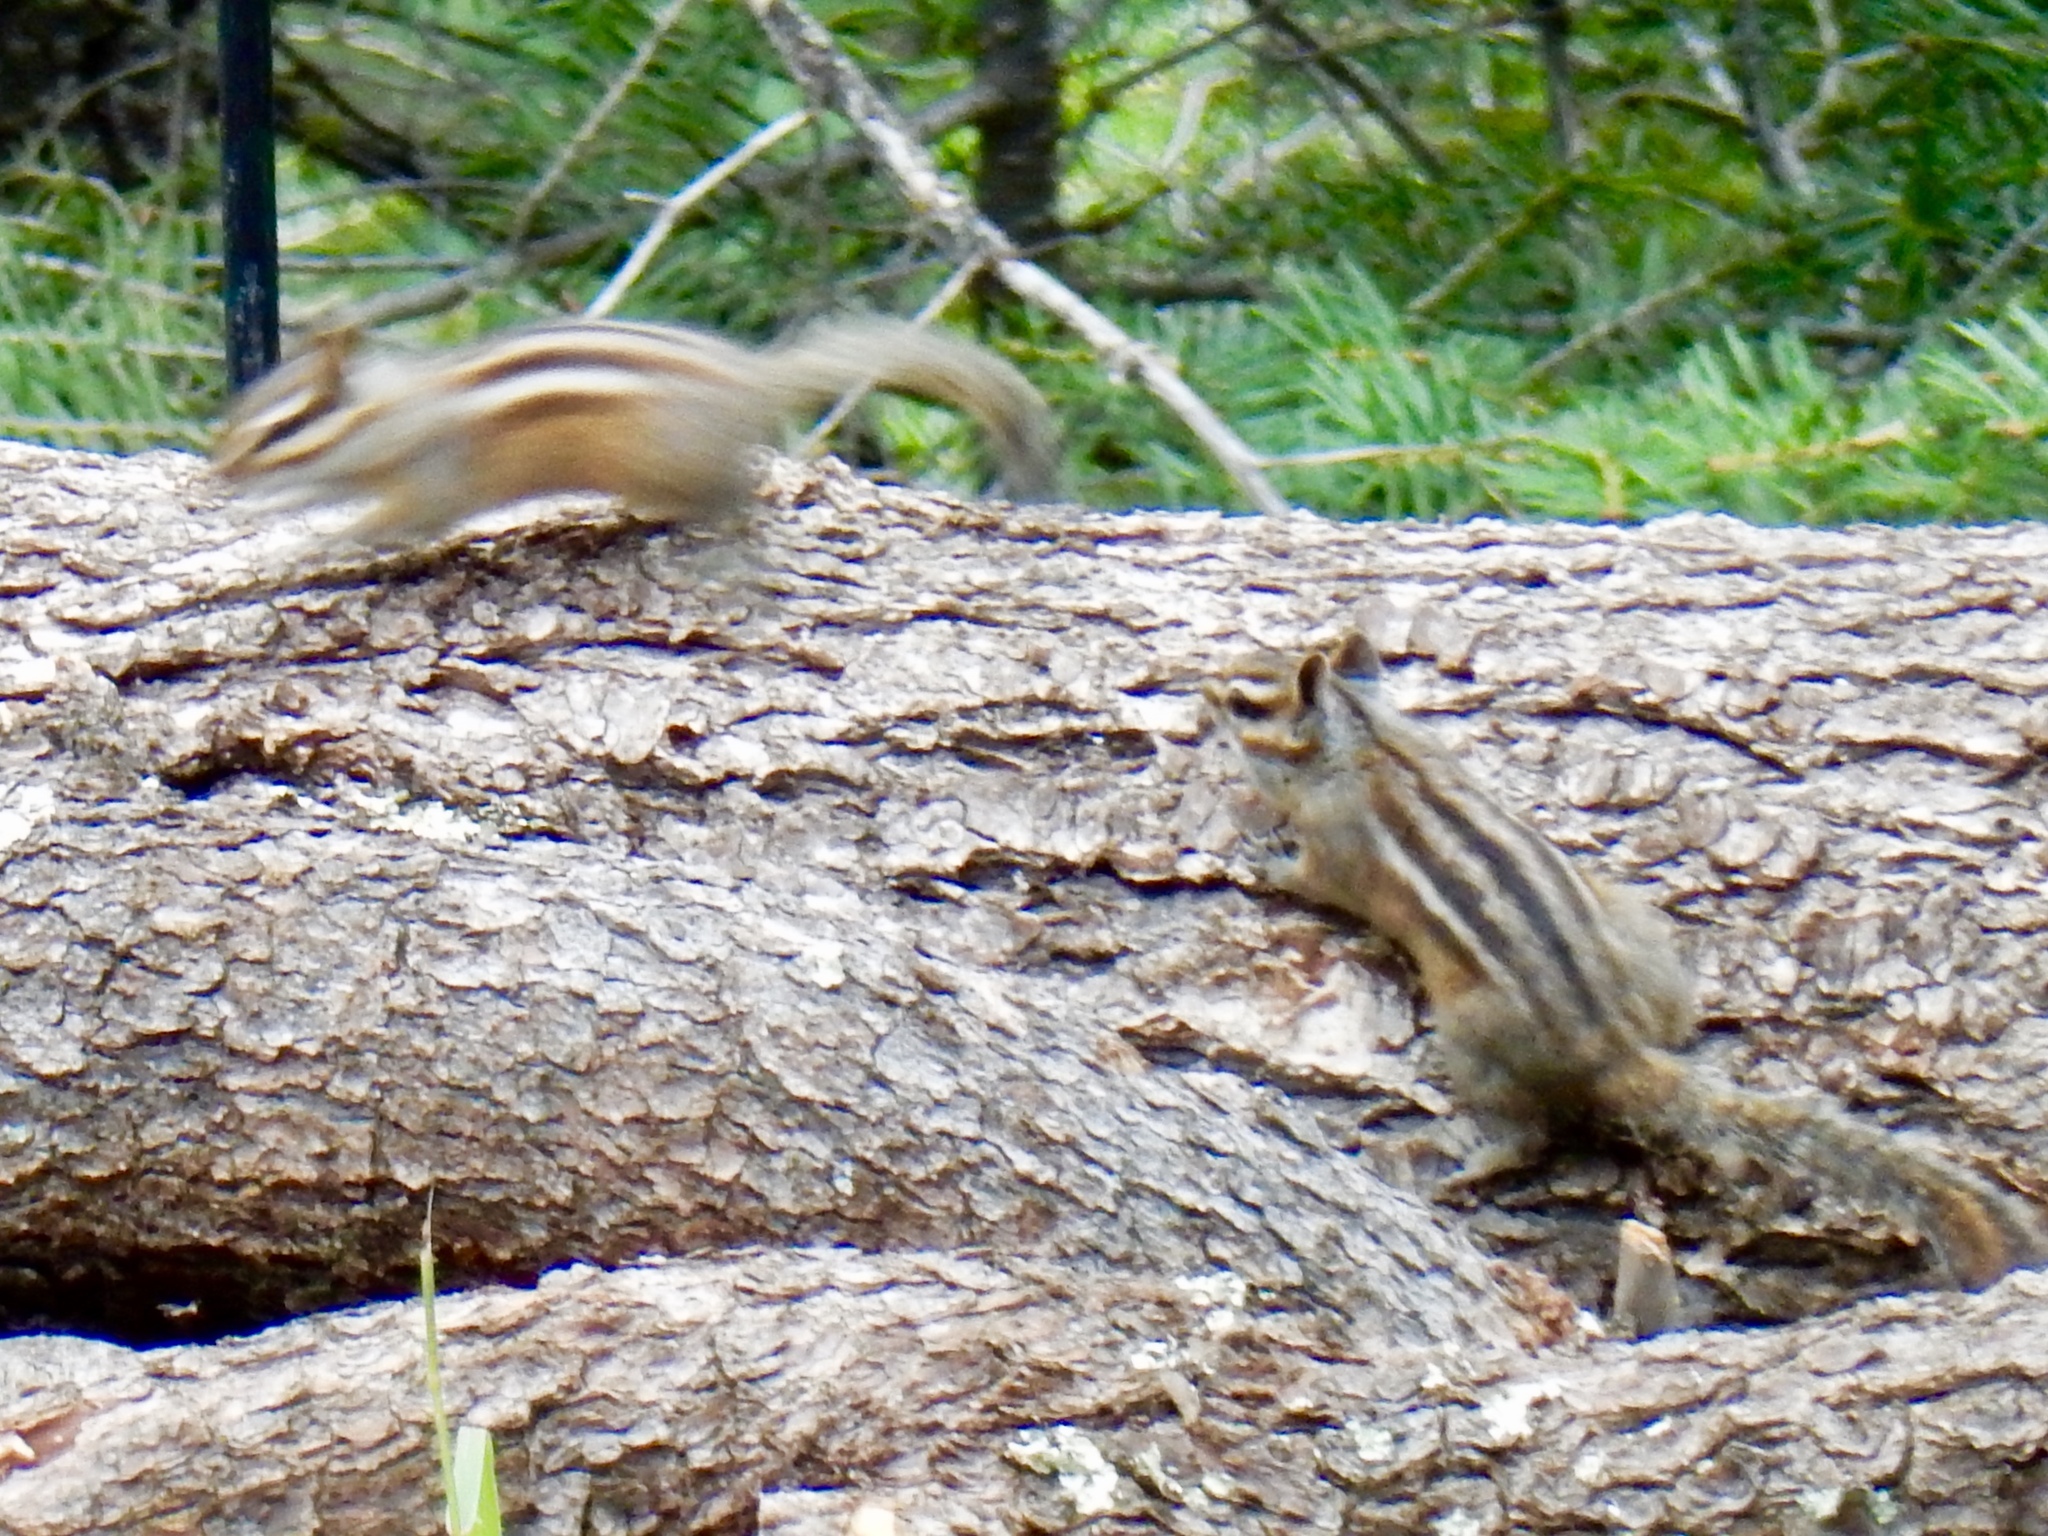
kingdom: Animalia
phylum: Chordata
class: Mammalia
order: Rodentia
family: Sciuridae
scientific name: Sciuridae
